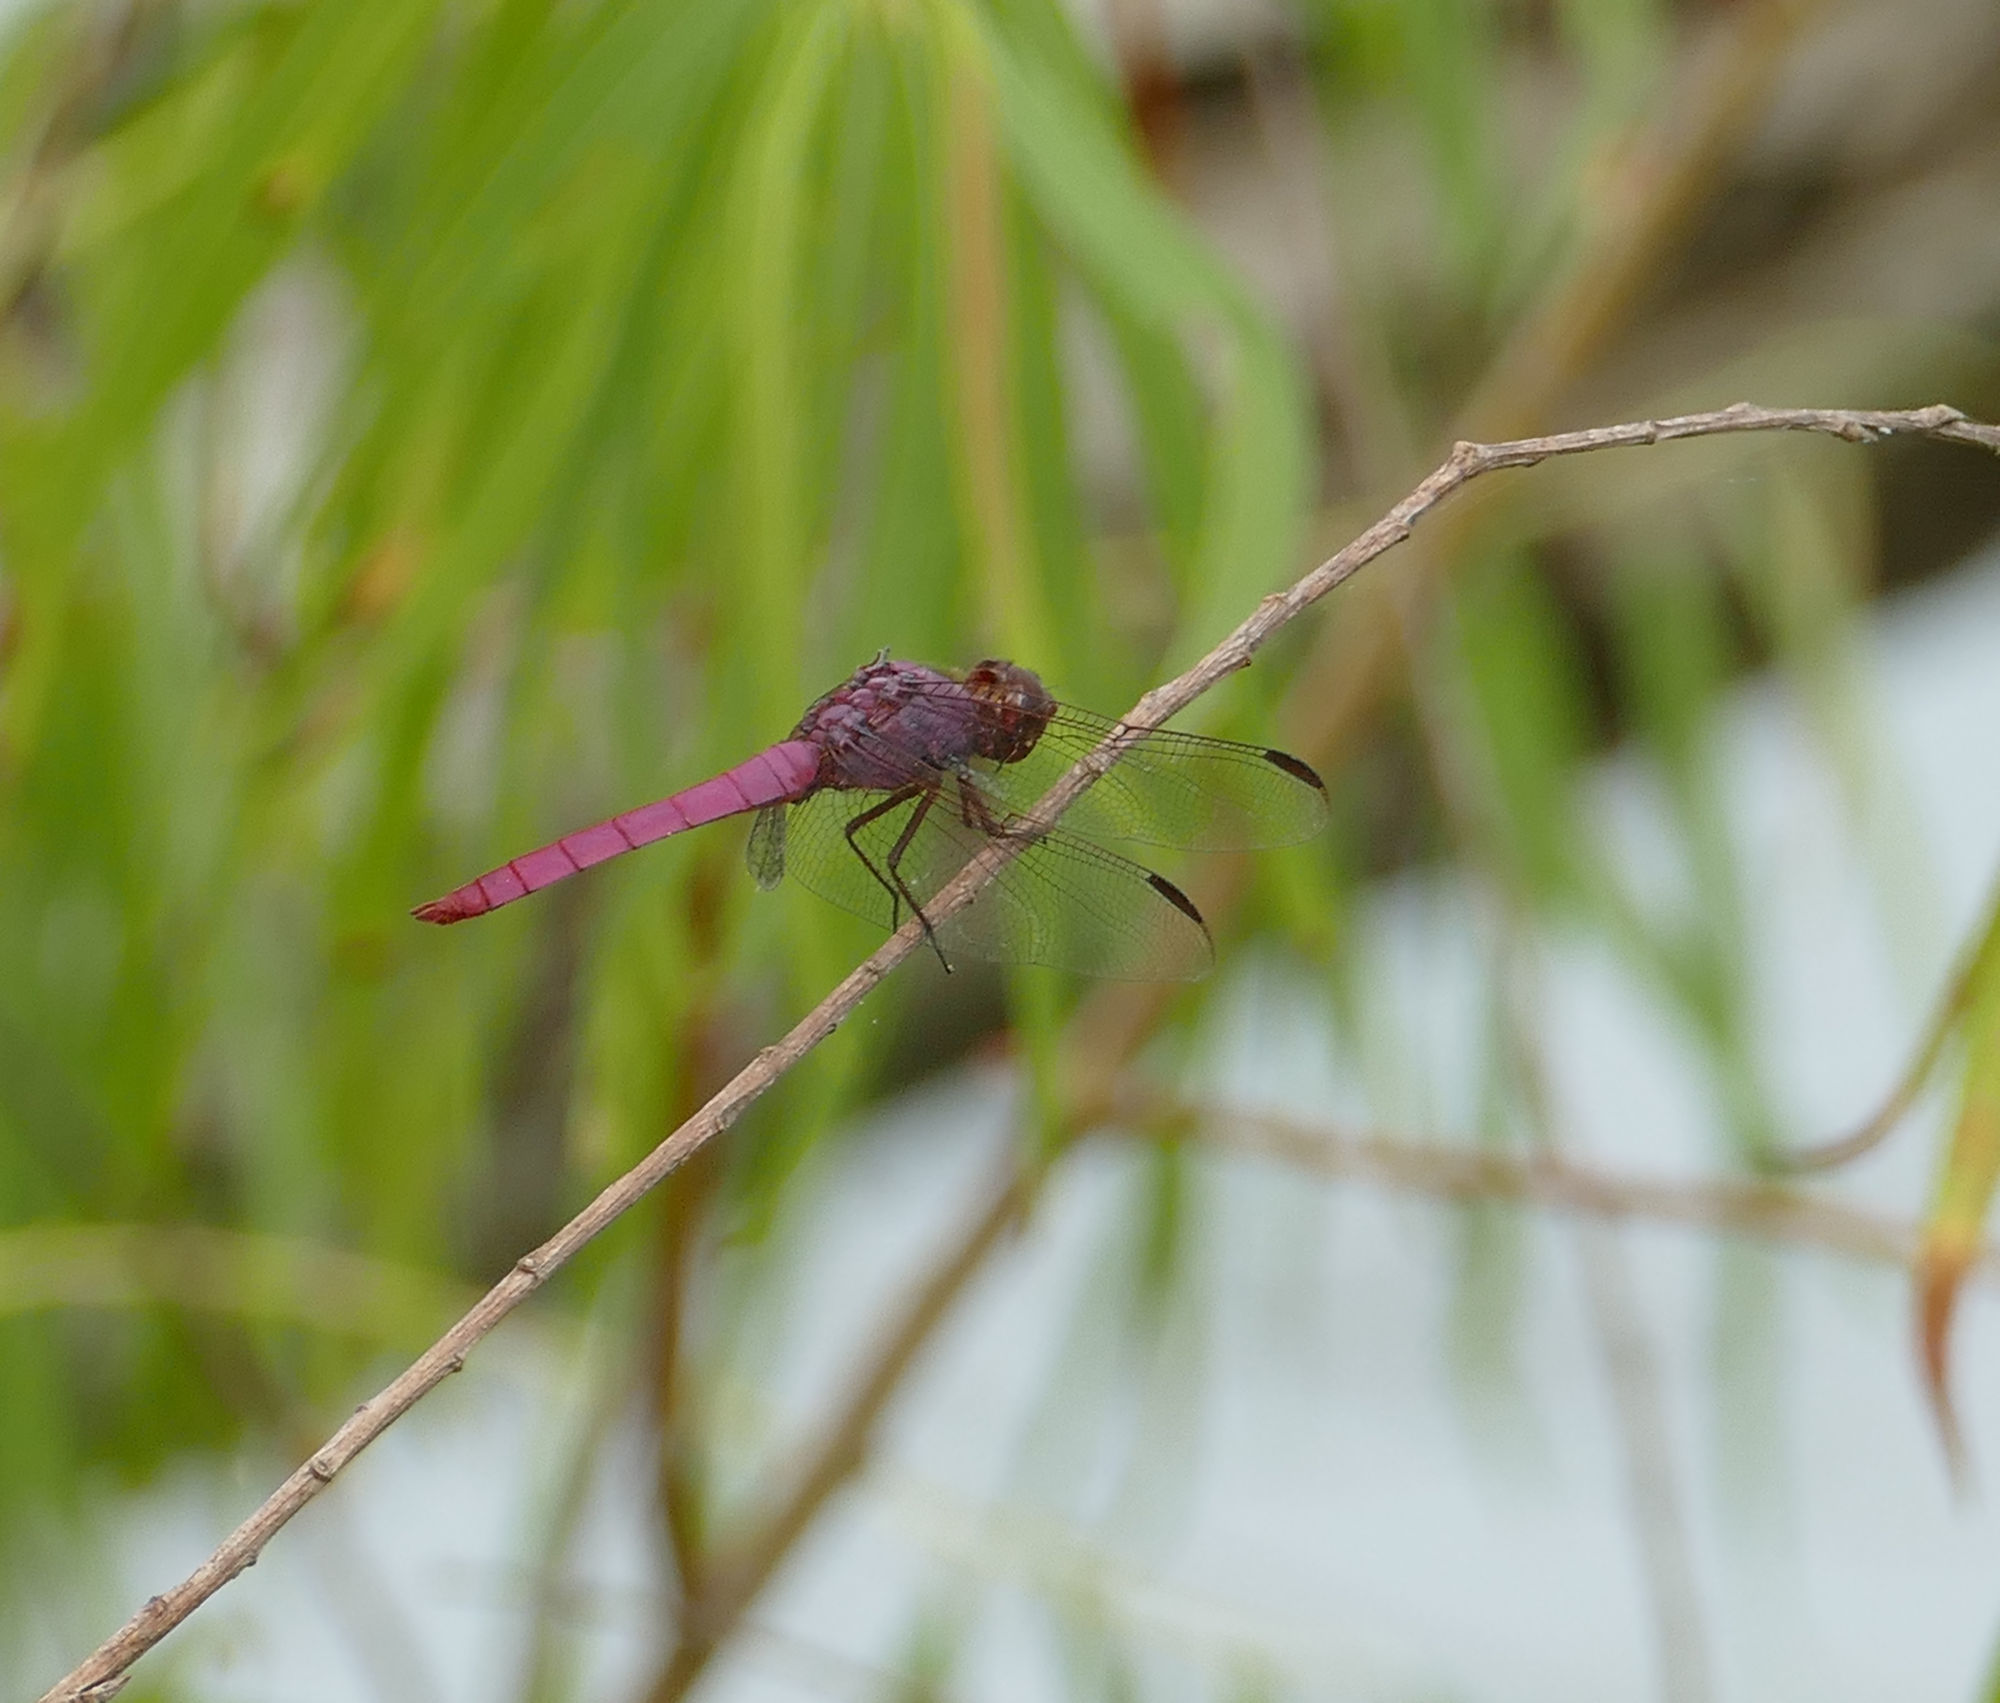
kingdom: Animalia
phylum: Arthropoda
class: Insecta
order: Odonata
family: Libellulidae
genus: Orthemis
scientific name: Orthemis ferruginea
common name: Roseate skimmer
